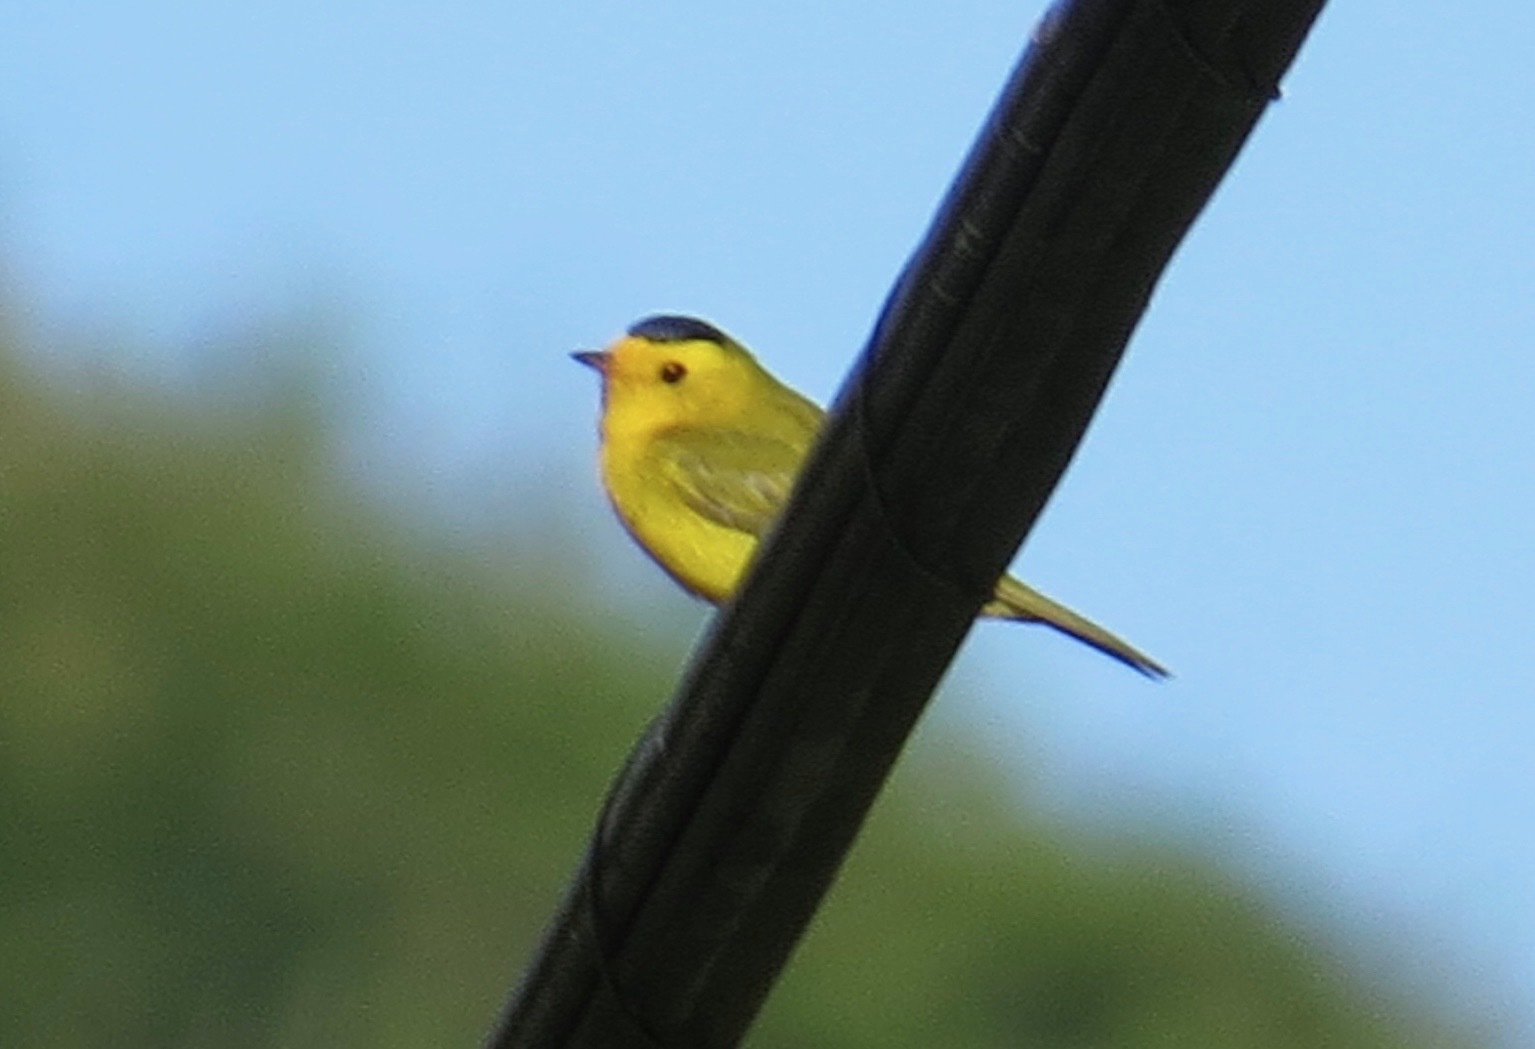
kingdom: Animalia
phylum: Chordata
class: Aves
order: Passeriformes
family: Parulidae
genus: Cardellina
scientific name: Cardellina pusilla
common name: Wilson's warbler
